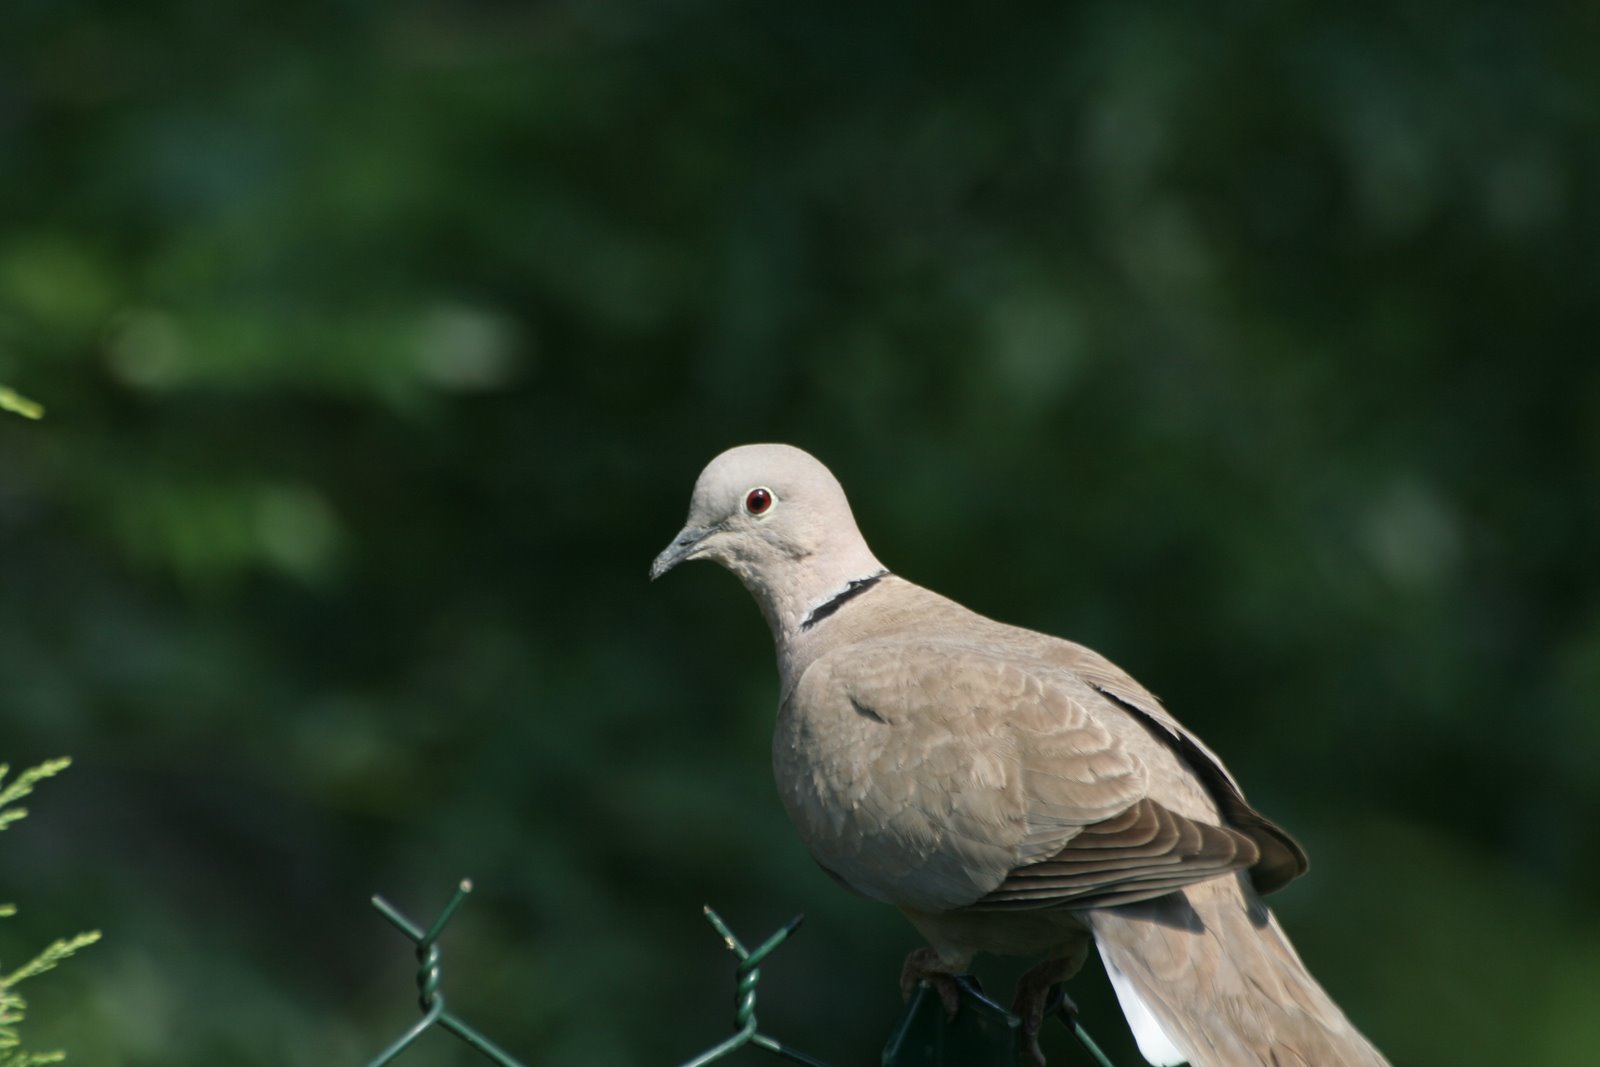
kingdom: Animalia
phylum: Chordata
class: Aves
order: Columbiformes
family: Columbidae
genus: Streptopelia
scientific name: Streptopelia decaocto
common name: Eurasian collared dove
